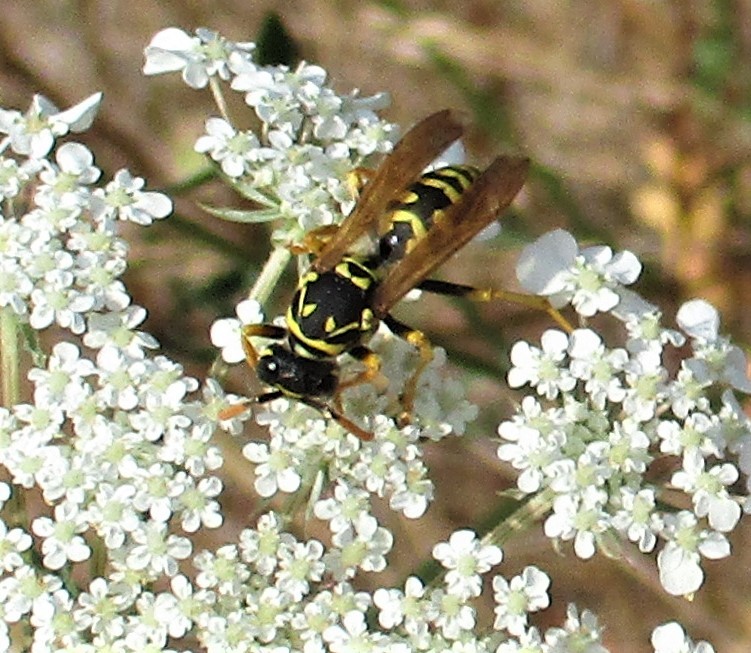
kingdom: Animalia
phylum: Arthropoda
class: Insecta
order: Hymenoptera
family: Eumenidae
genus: Polistes
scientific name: Polistes dominula
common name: Paper wasp
